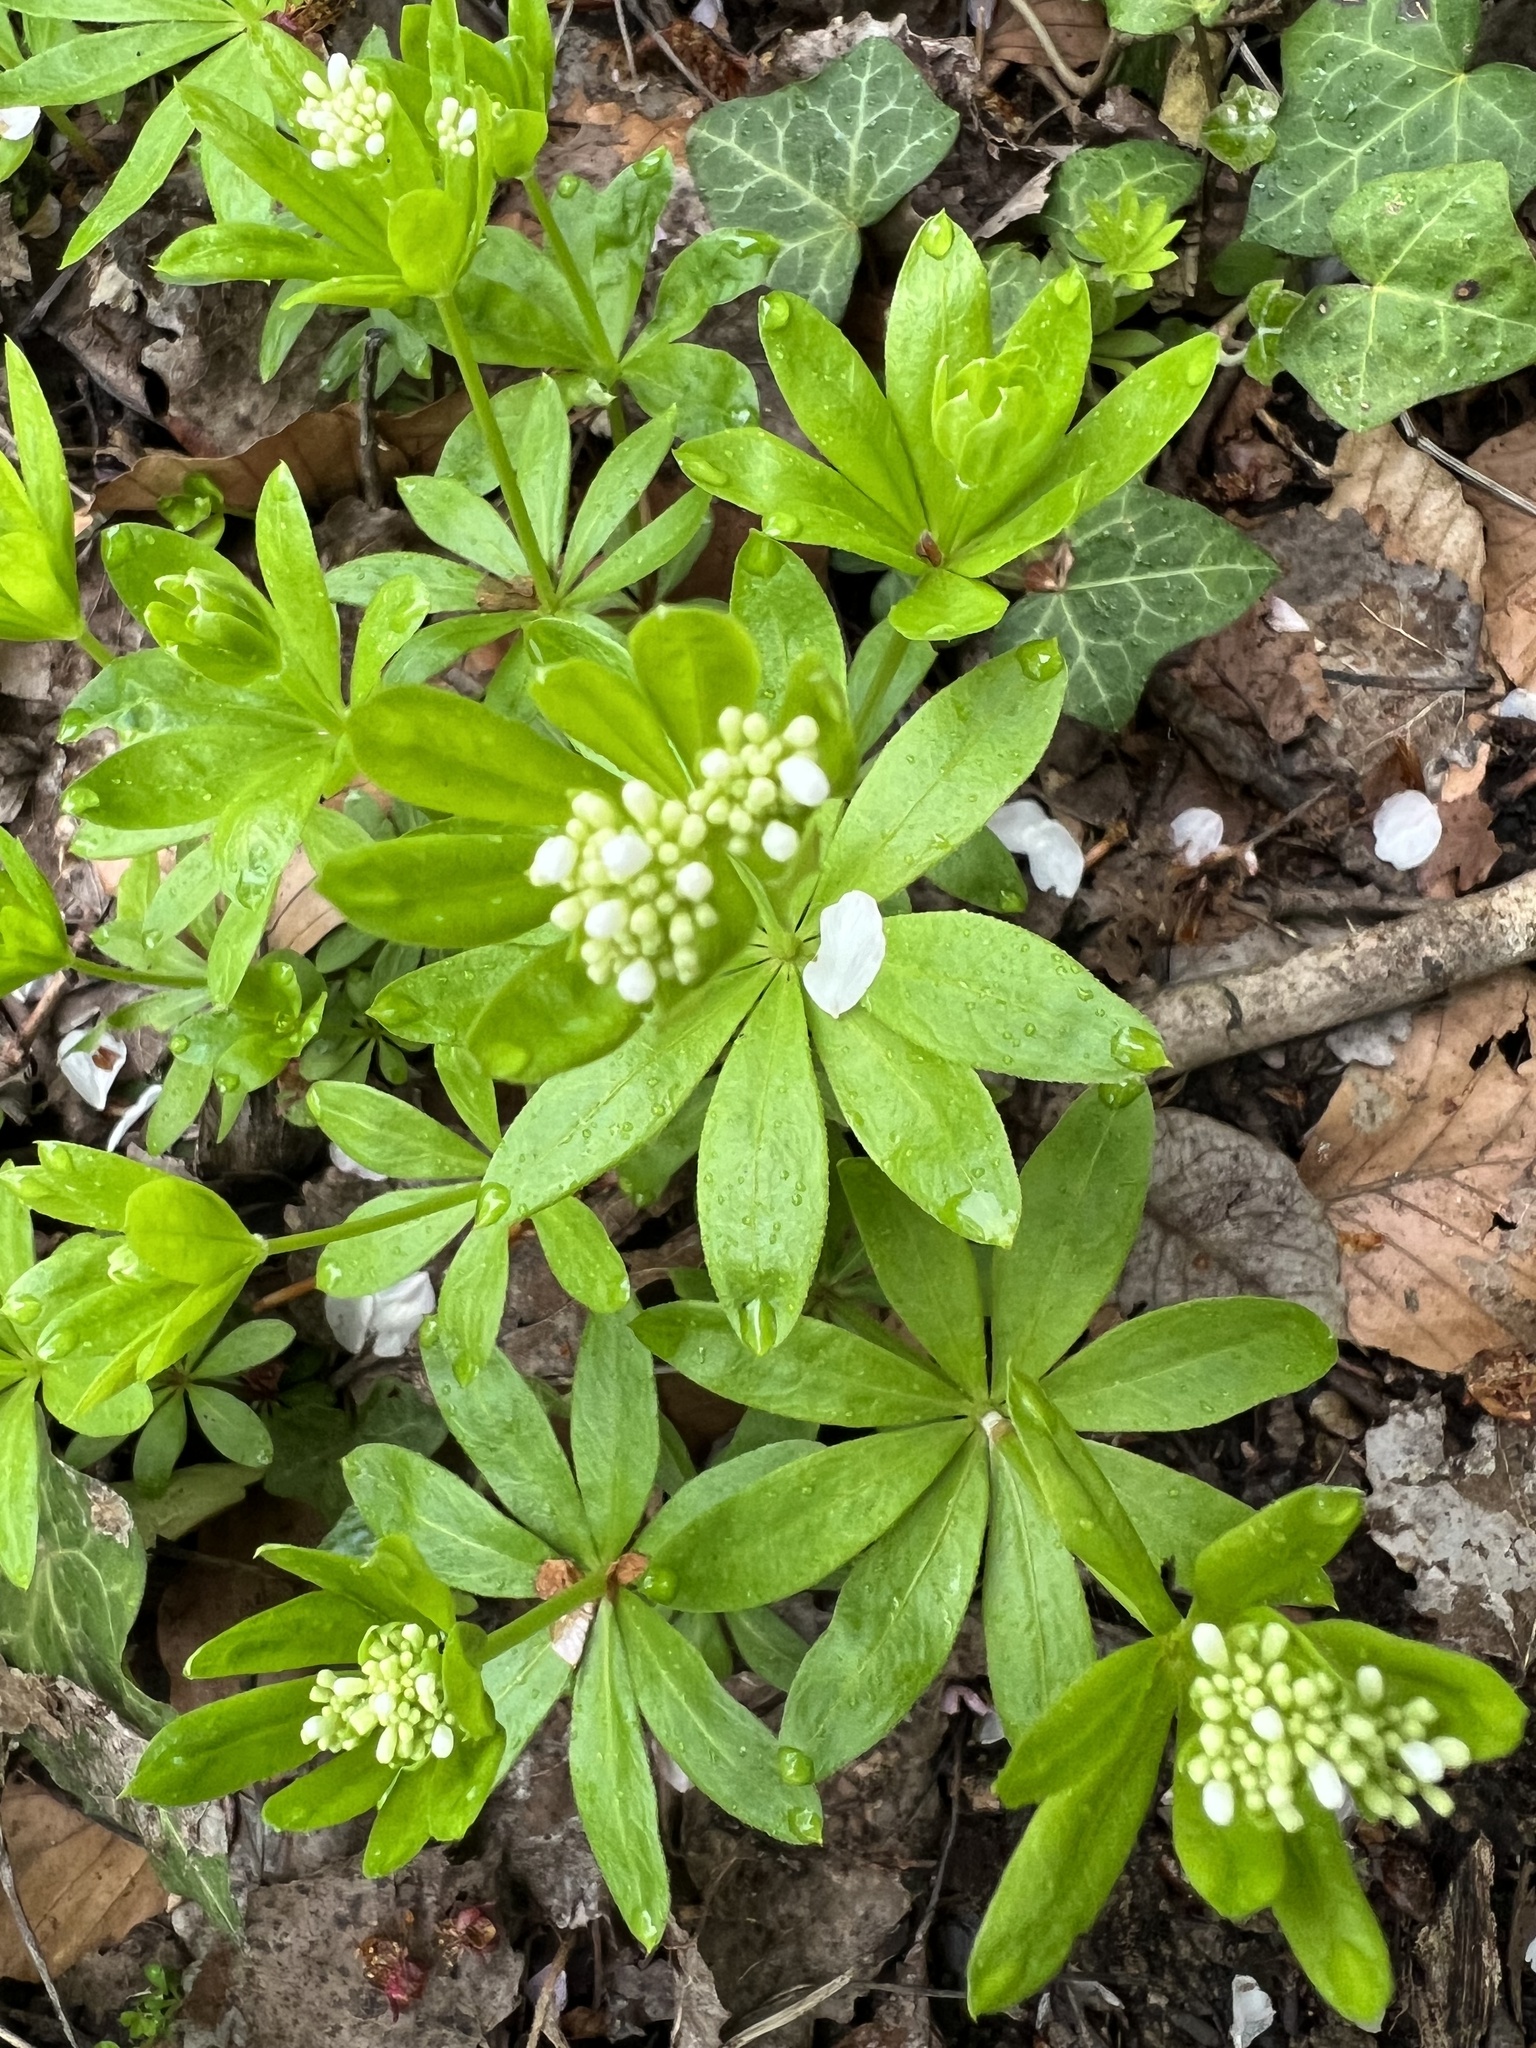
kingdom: Plantae
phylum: Tracheophyta
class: Magnoliopsida
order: Gentianales
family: Rubiaceae
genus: Galium
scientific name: Galium odoratum
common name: Sweet woodruff
